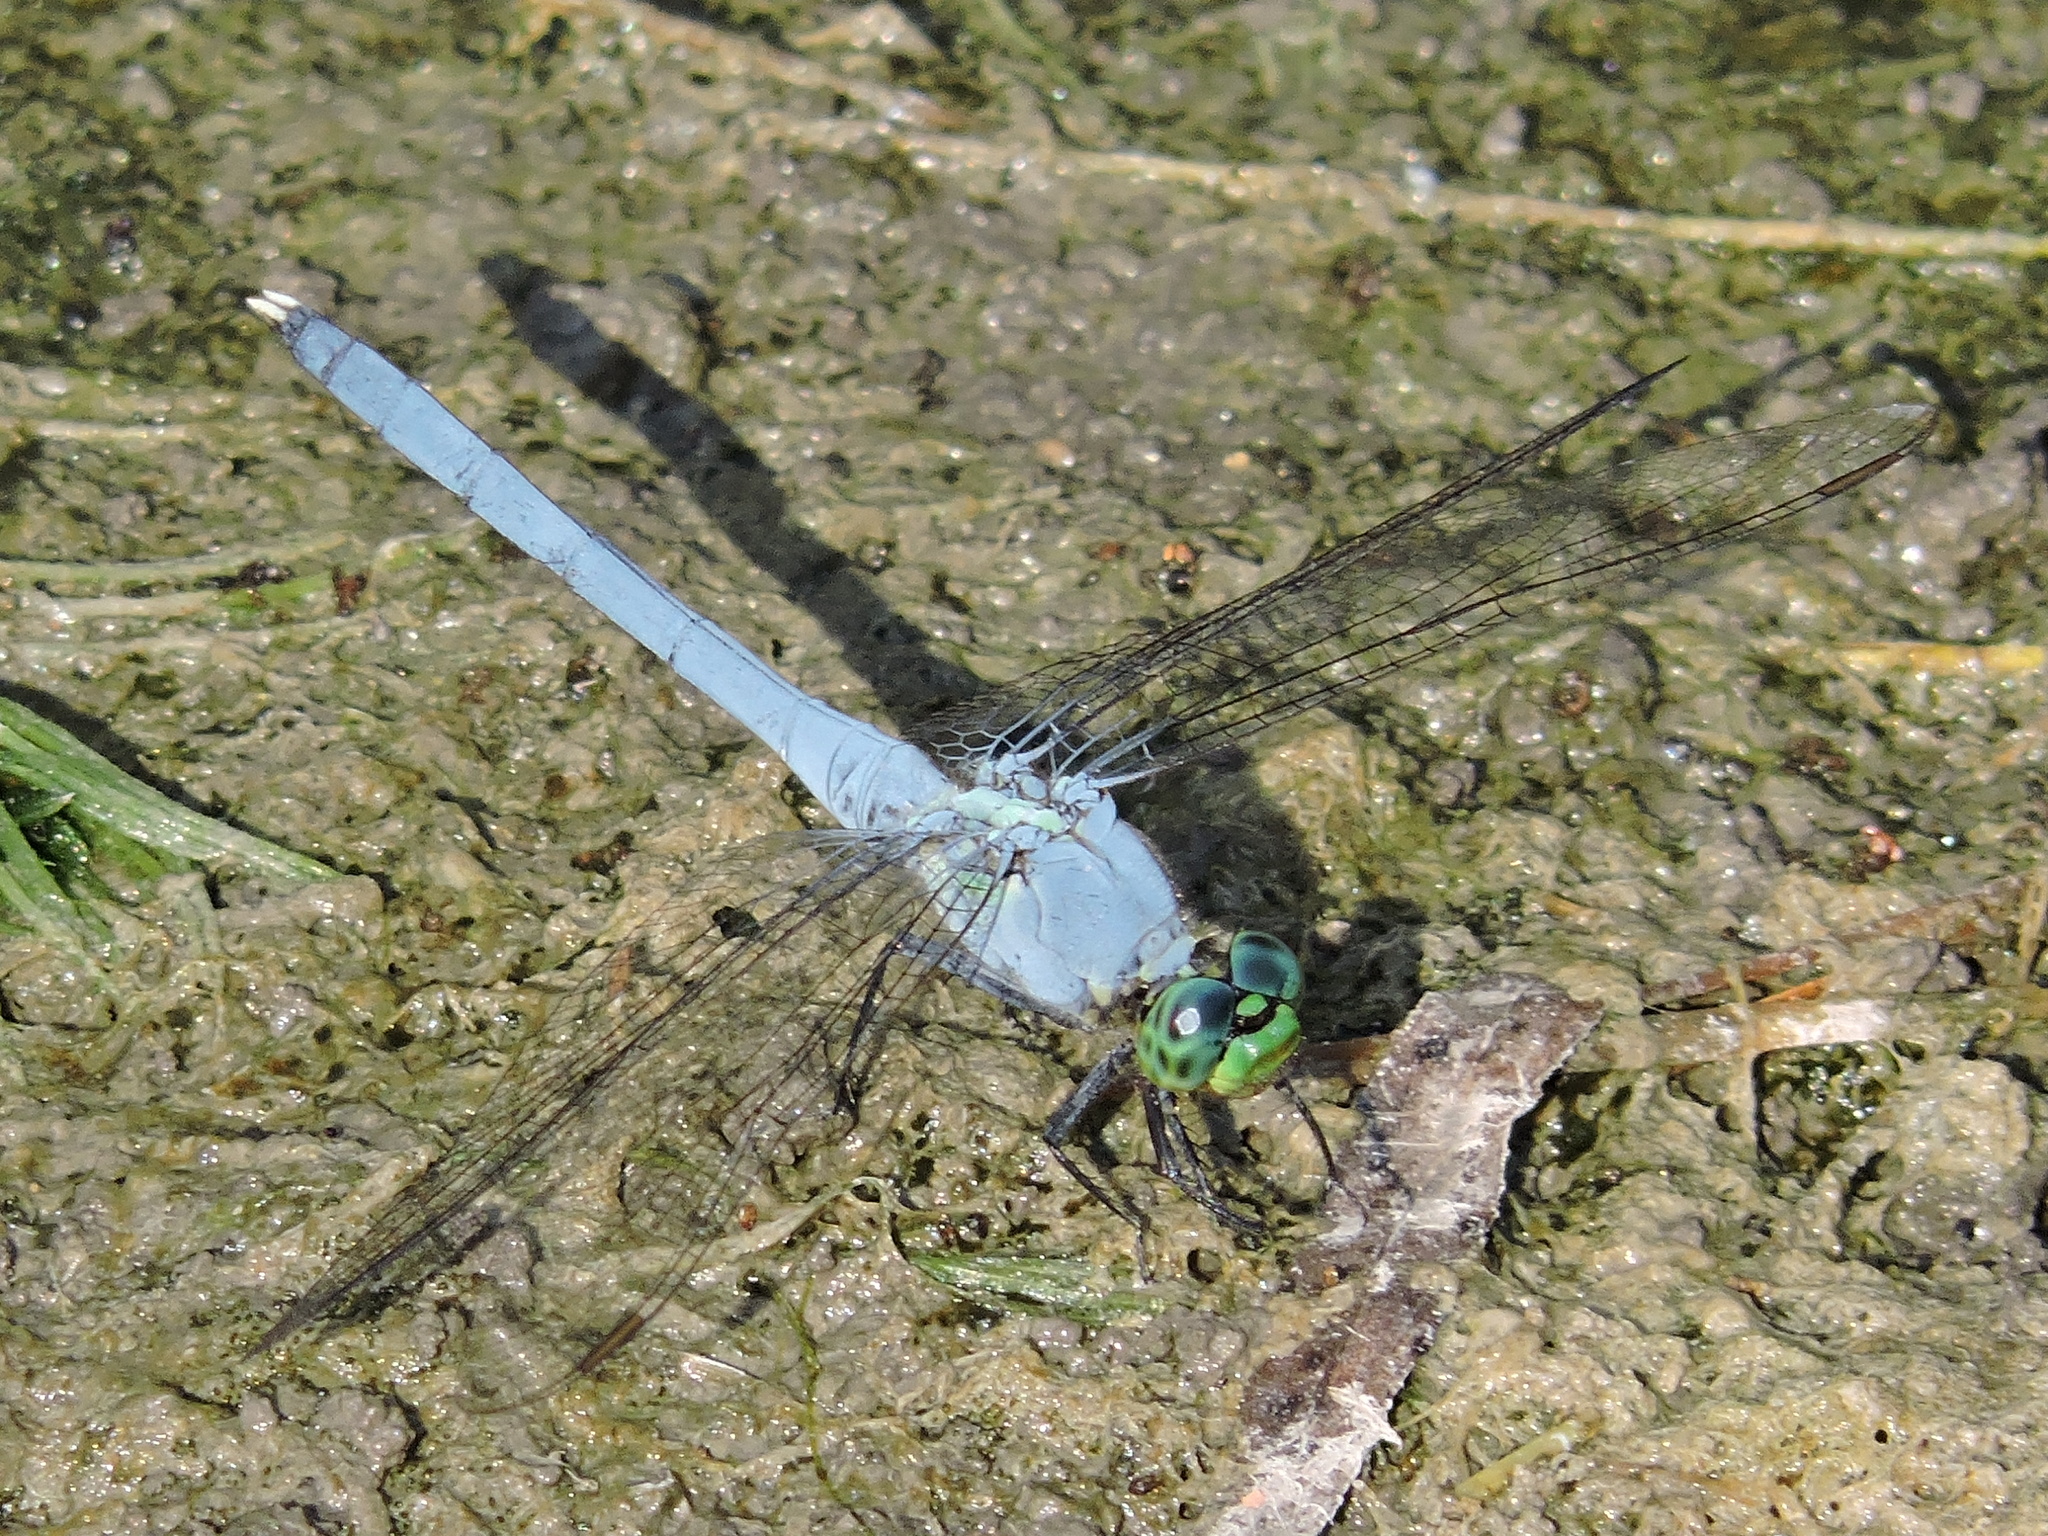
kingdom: Animalia
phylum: Arthropoda
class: Insecta
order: Odonata
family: Libellulidae
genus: Erythemis
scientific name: Erythemis simplicicollis
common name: Eastern pondhawk
